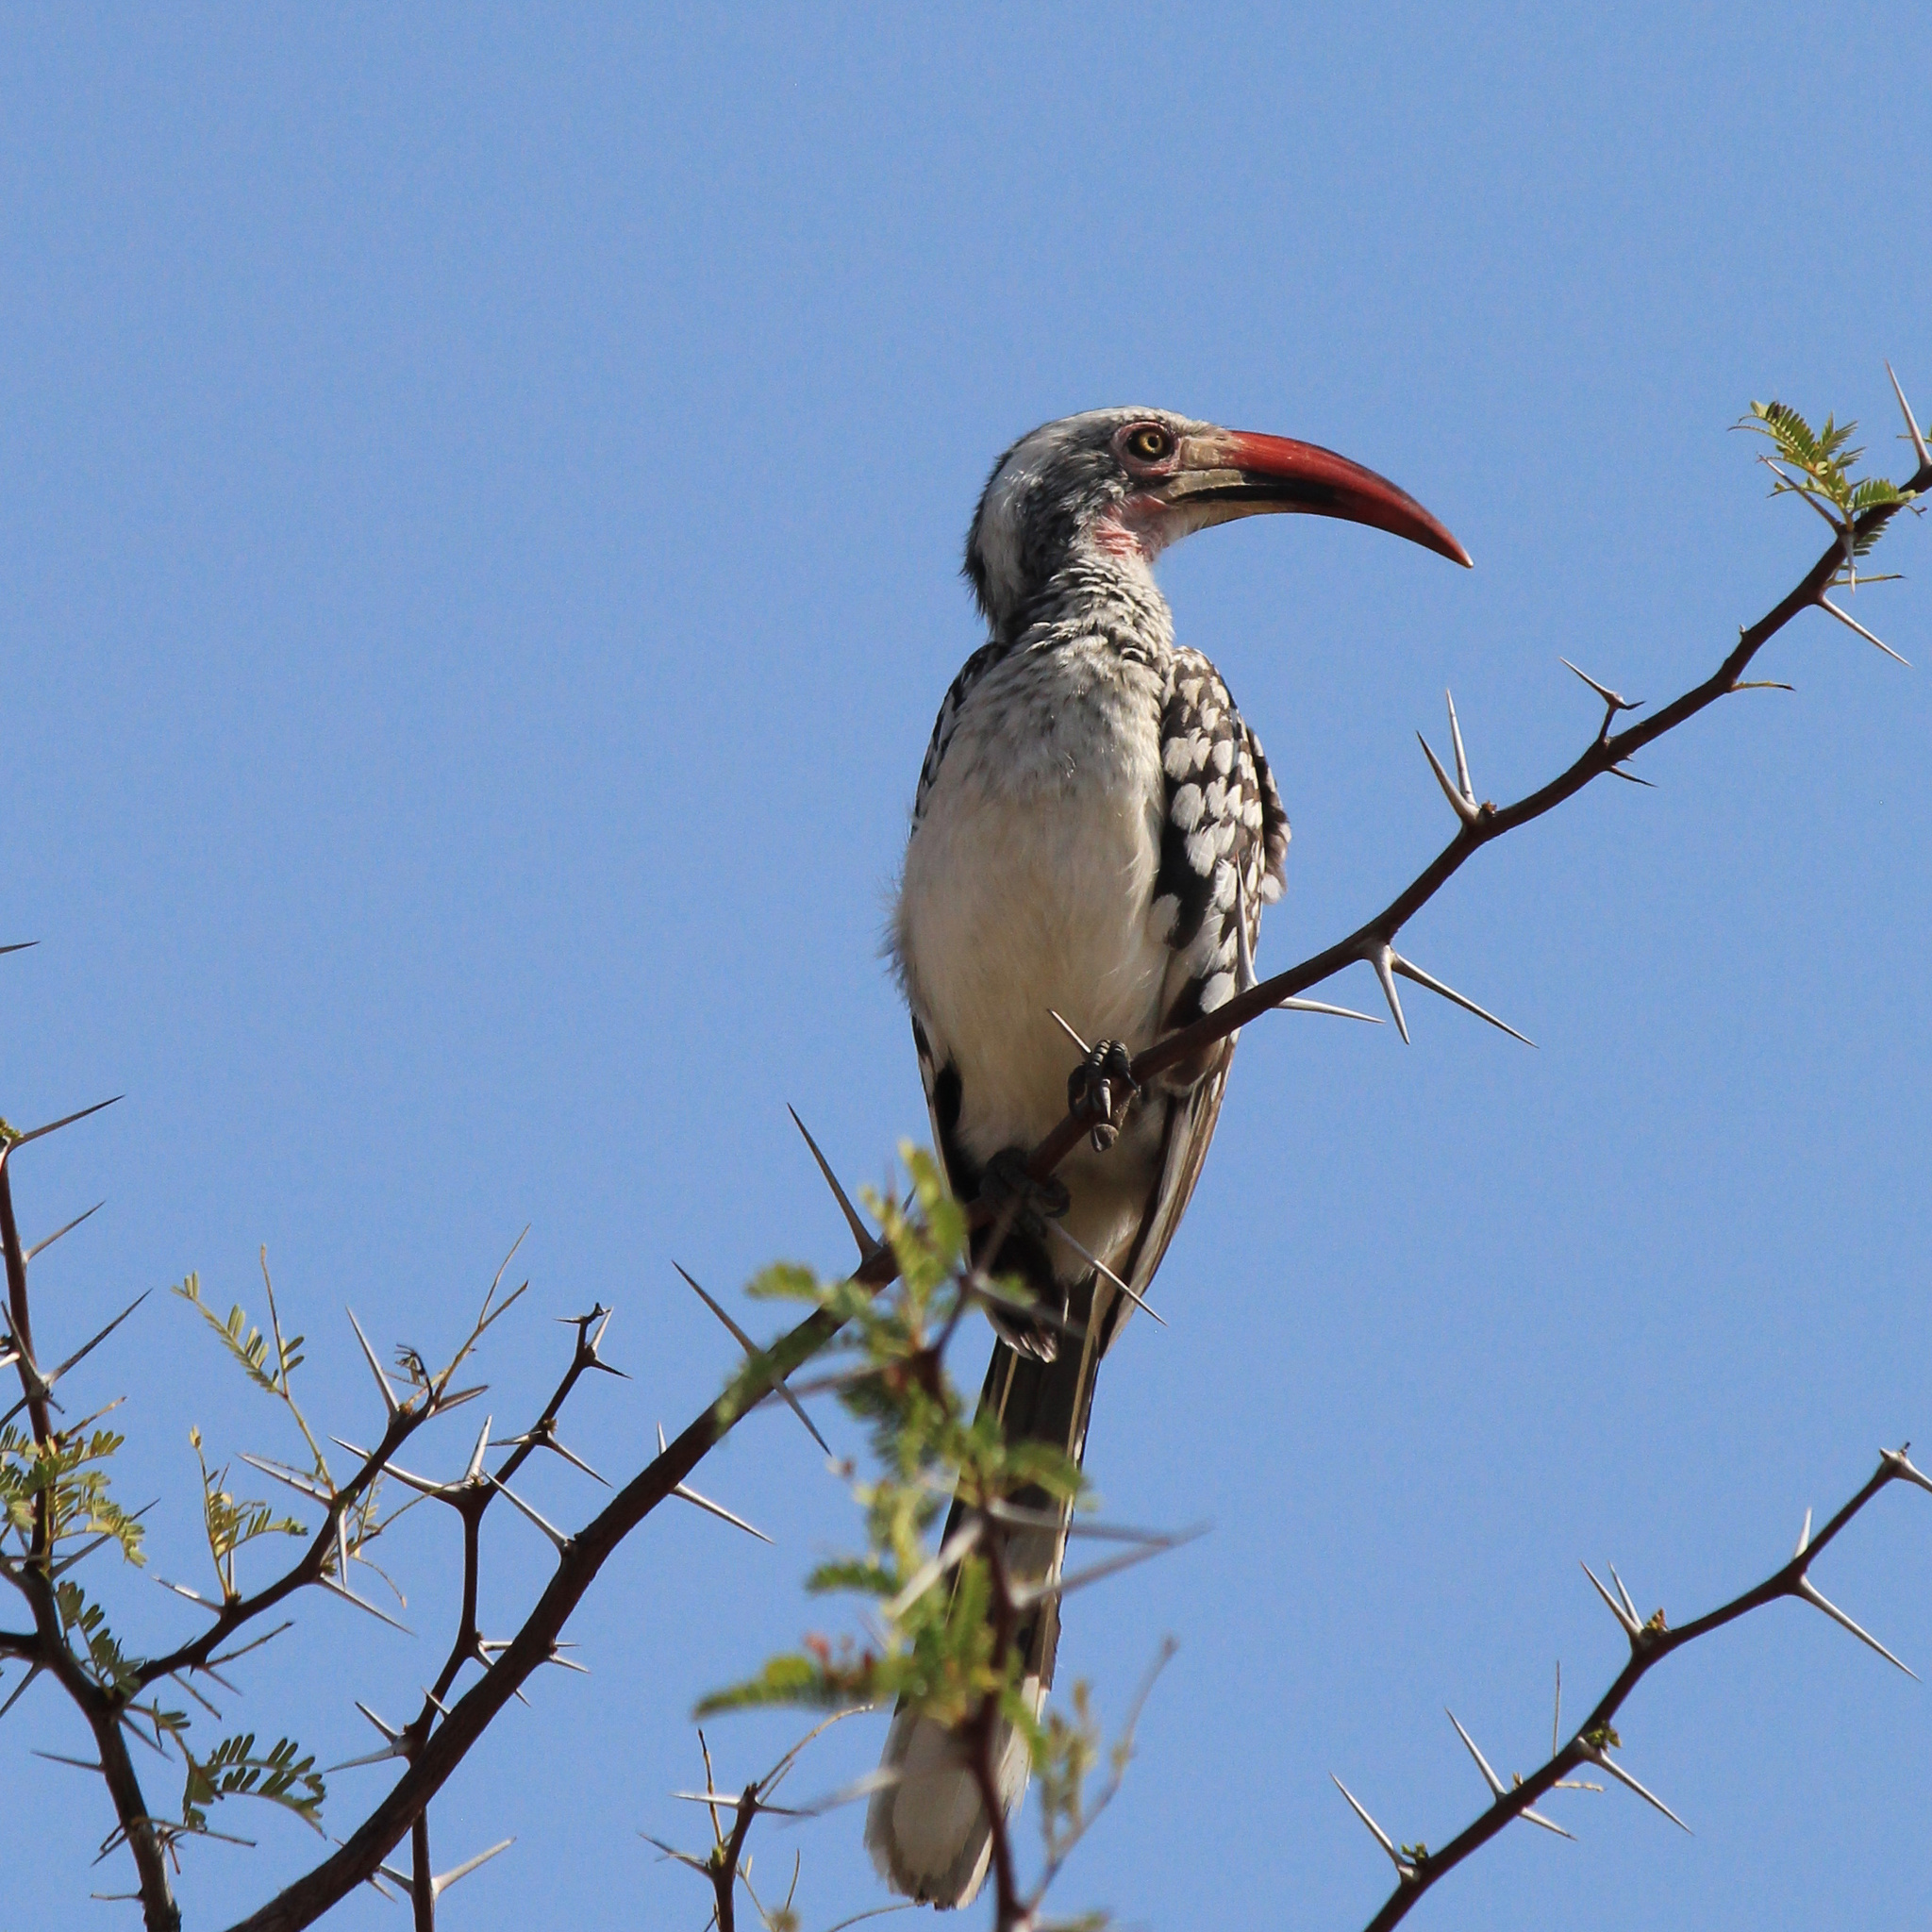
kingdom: Animalia
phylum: Chordata
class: Aves
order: Bucerotiformes
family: Bucerotidae
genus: Tockus
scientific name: Tockus rufirostris
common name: Southern red-billed hornbill
